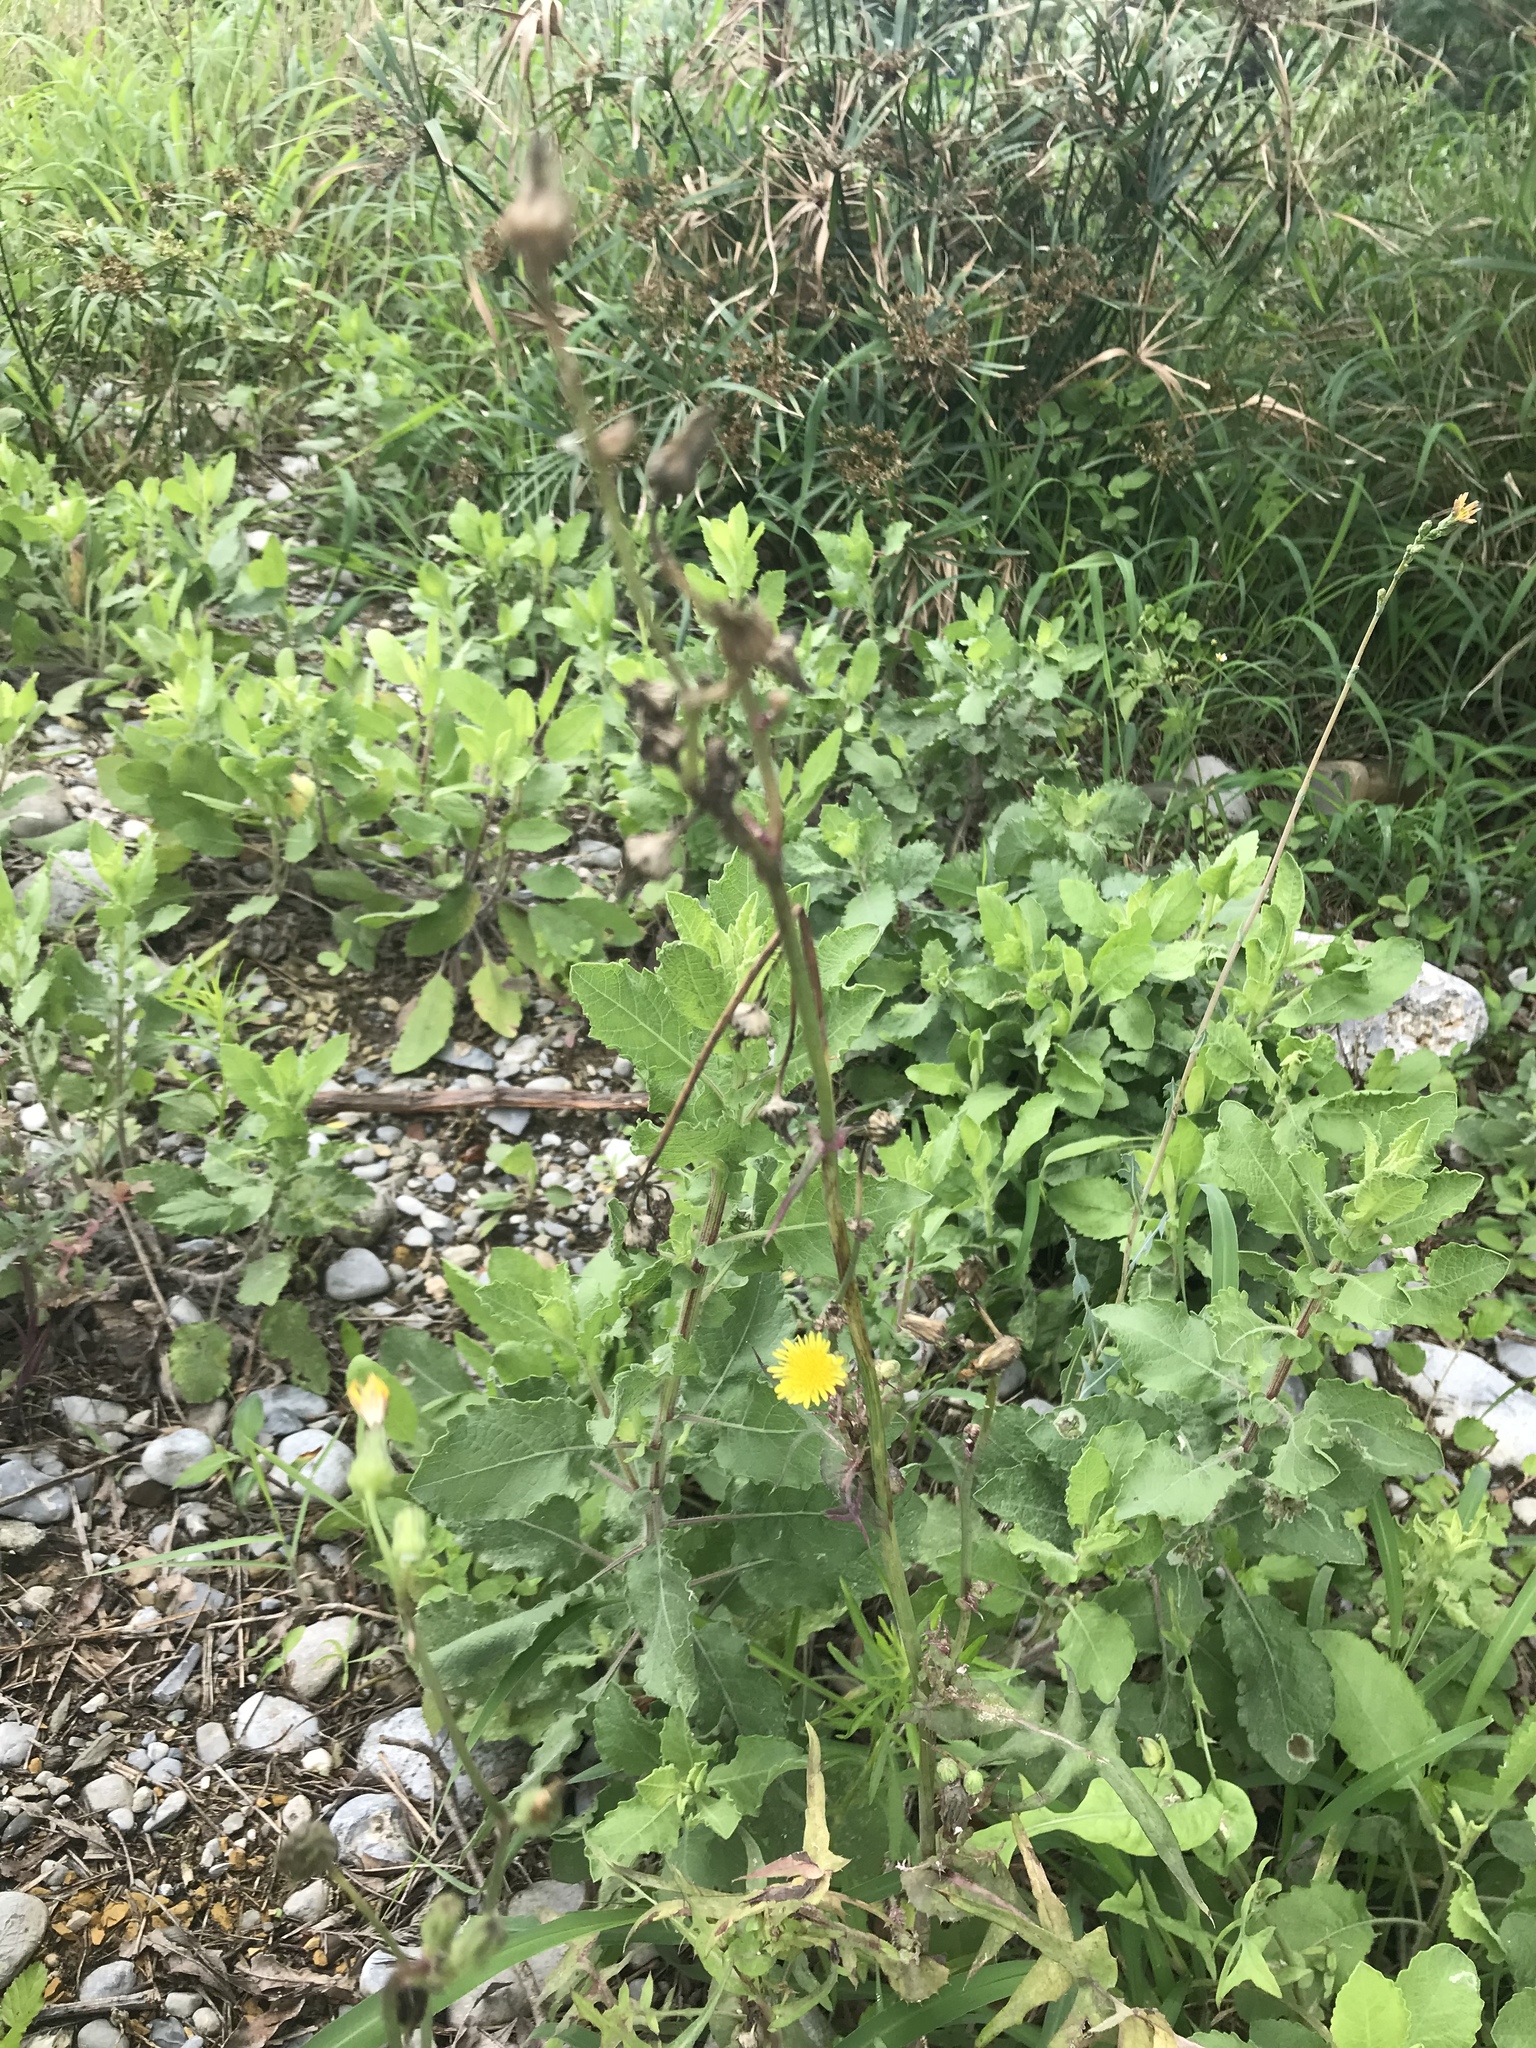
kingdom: Plantae
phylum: Tracheophyta
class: Magnoliopsida
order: Asterales
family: Asteraceae
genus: Sonchus
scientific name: Sonchus oleraceus
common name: Common sowthistle
